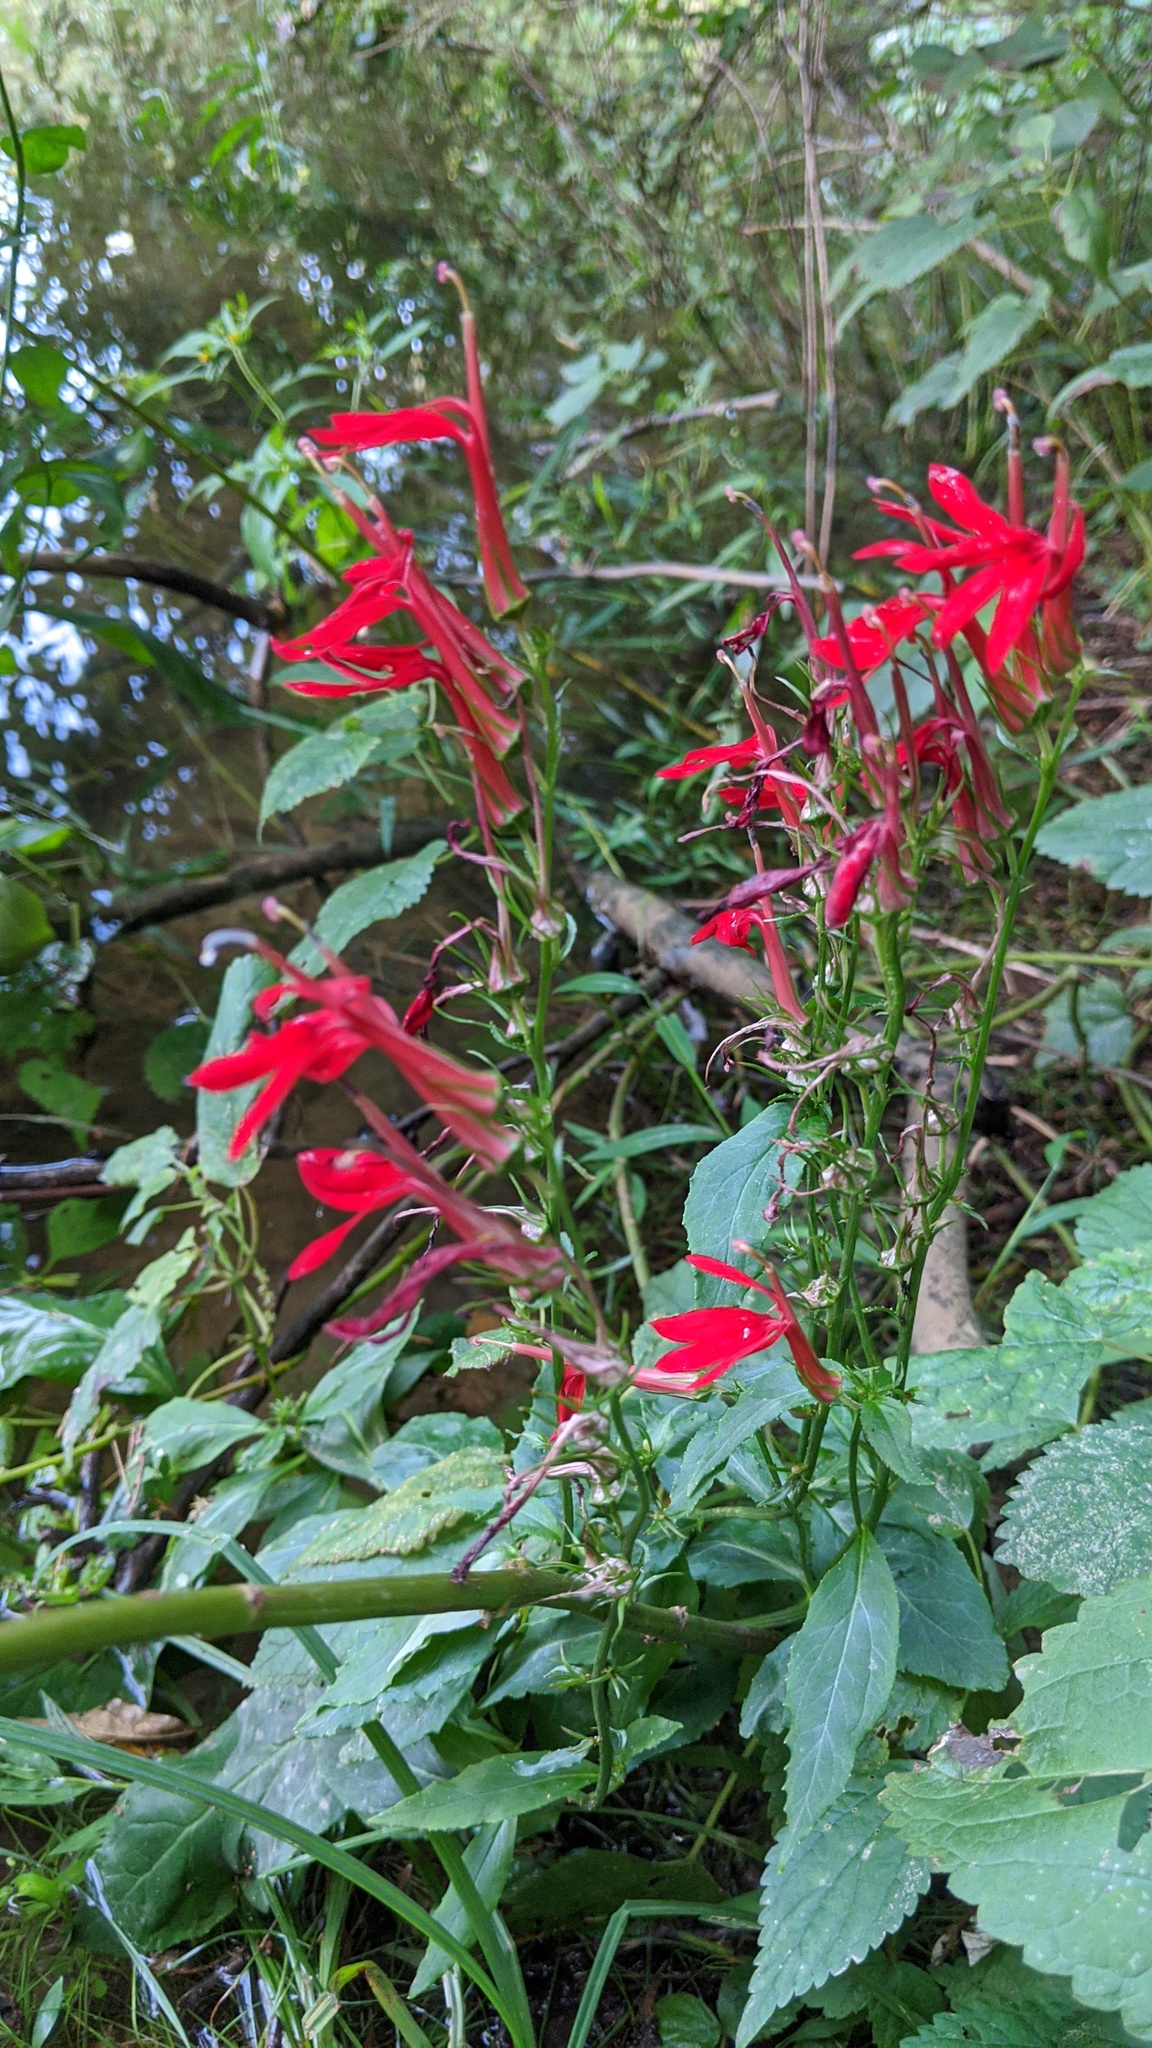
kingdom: Plantae
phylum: Tracheophyta
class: Magnoliopsida
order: Asterales
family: Campanulaceae
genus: Lobelia
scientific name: Lobelia cardinalis
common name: Cardinal flower
